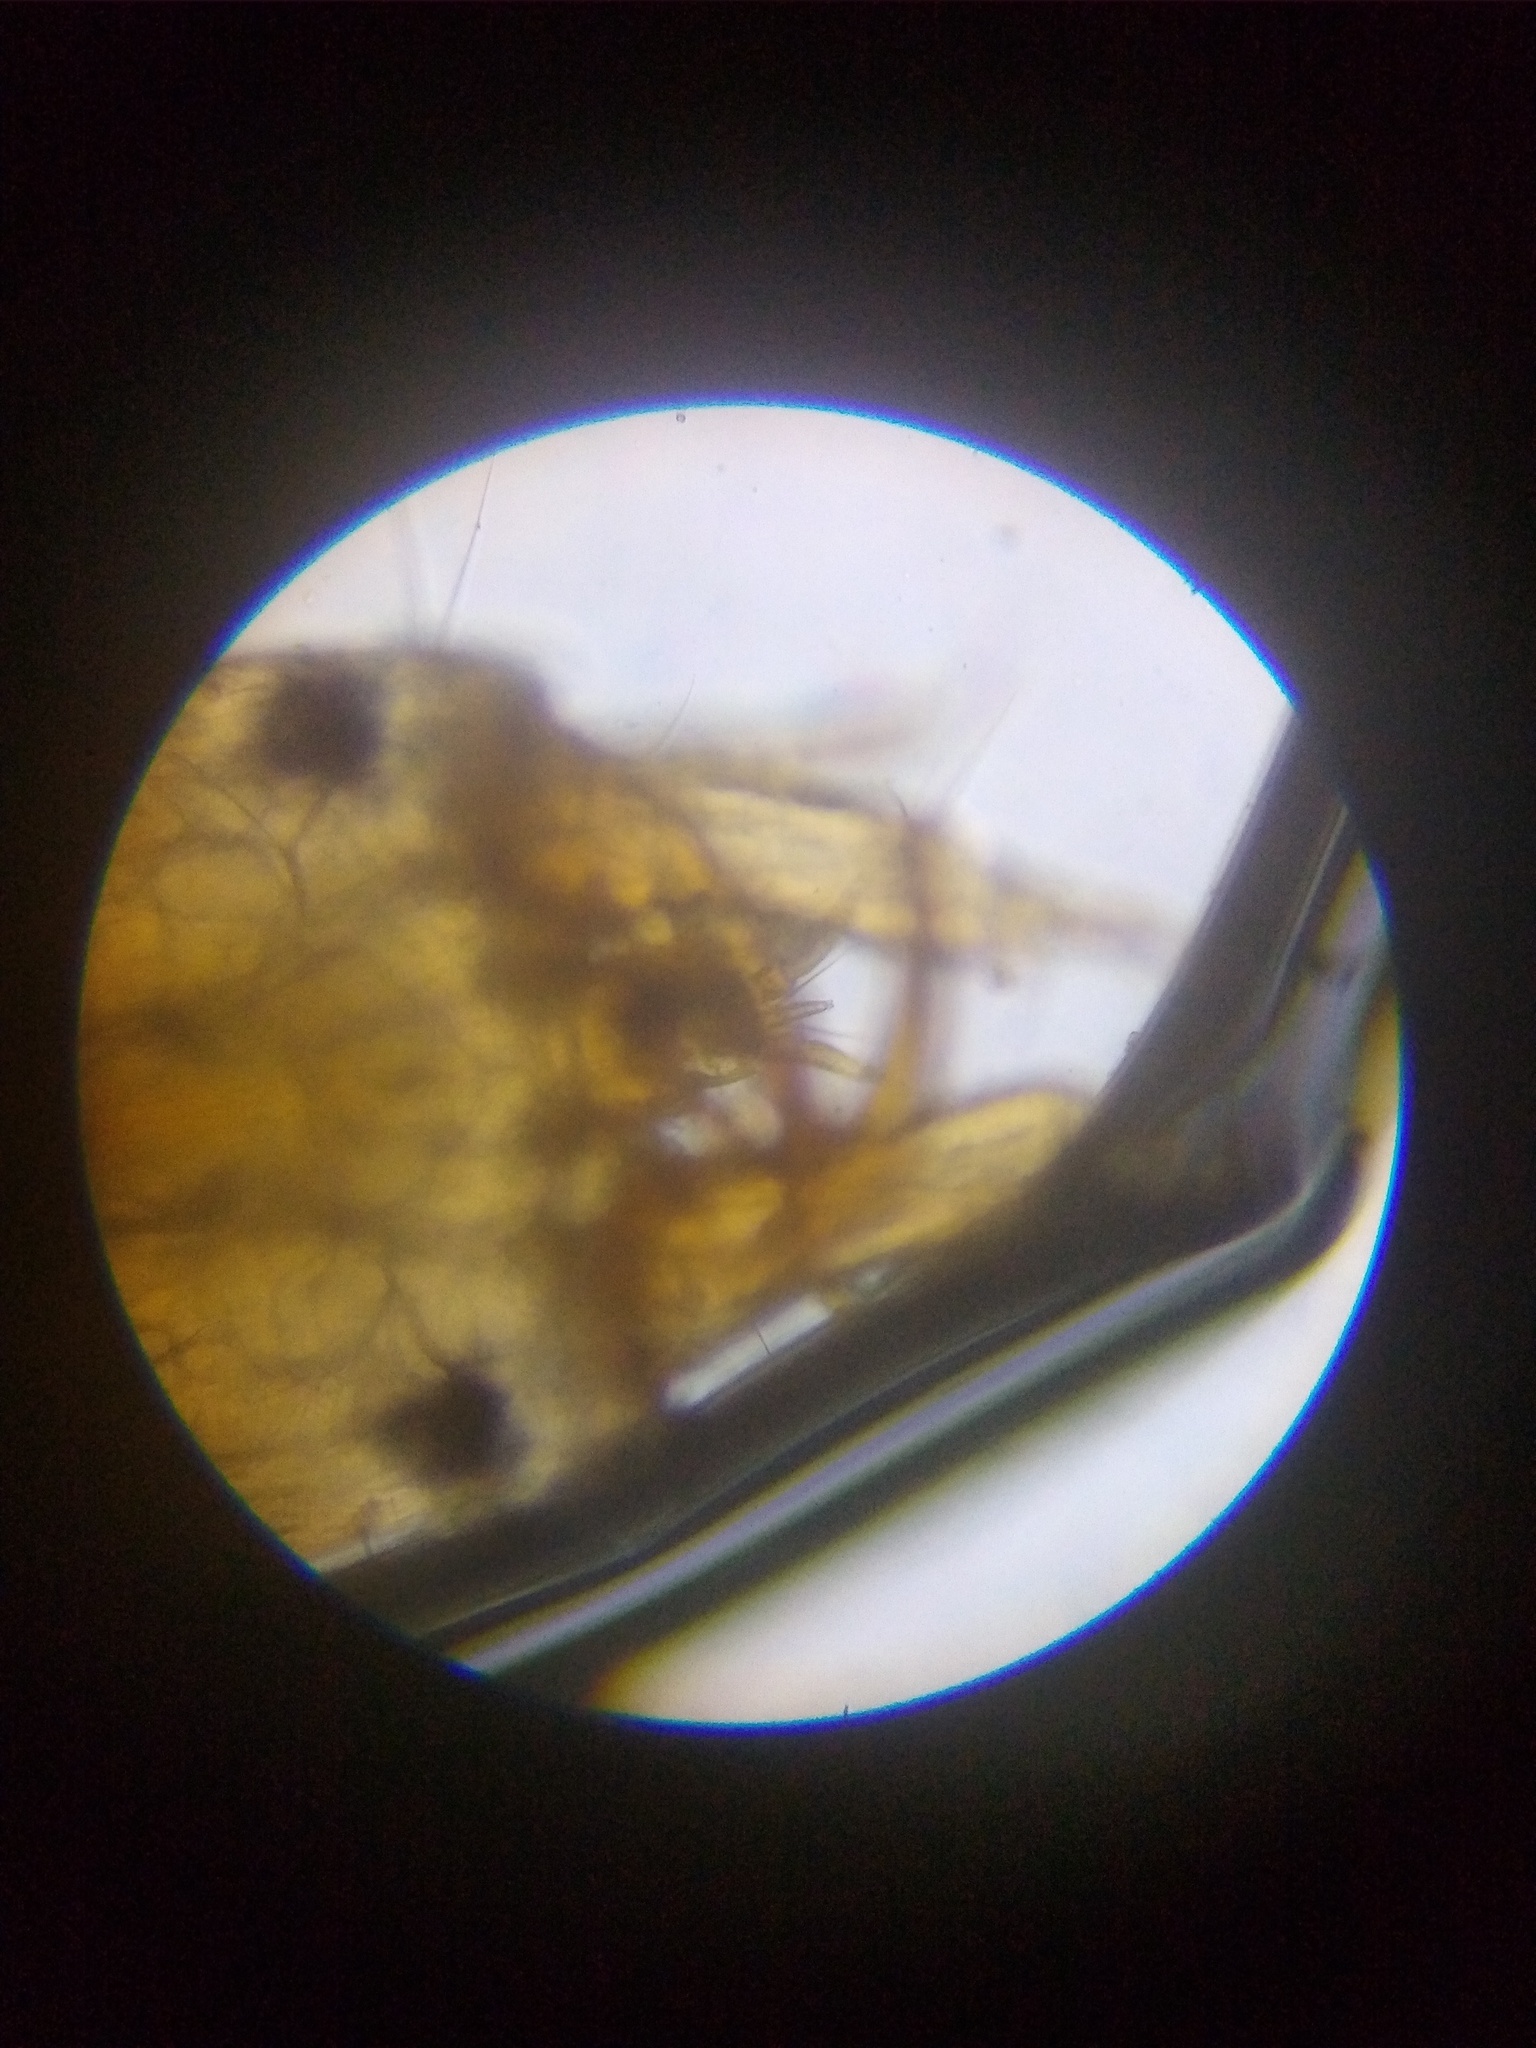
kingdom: Animalia
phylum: Arthropoda
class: Insecta
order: Coleoptera
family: Hydrophilidae
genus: Tropisternus
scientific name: Tropisternus
